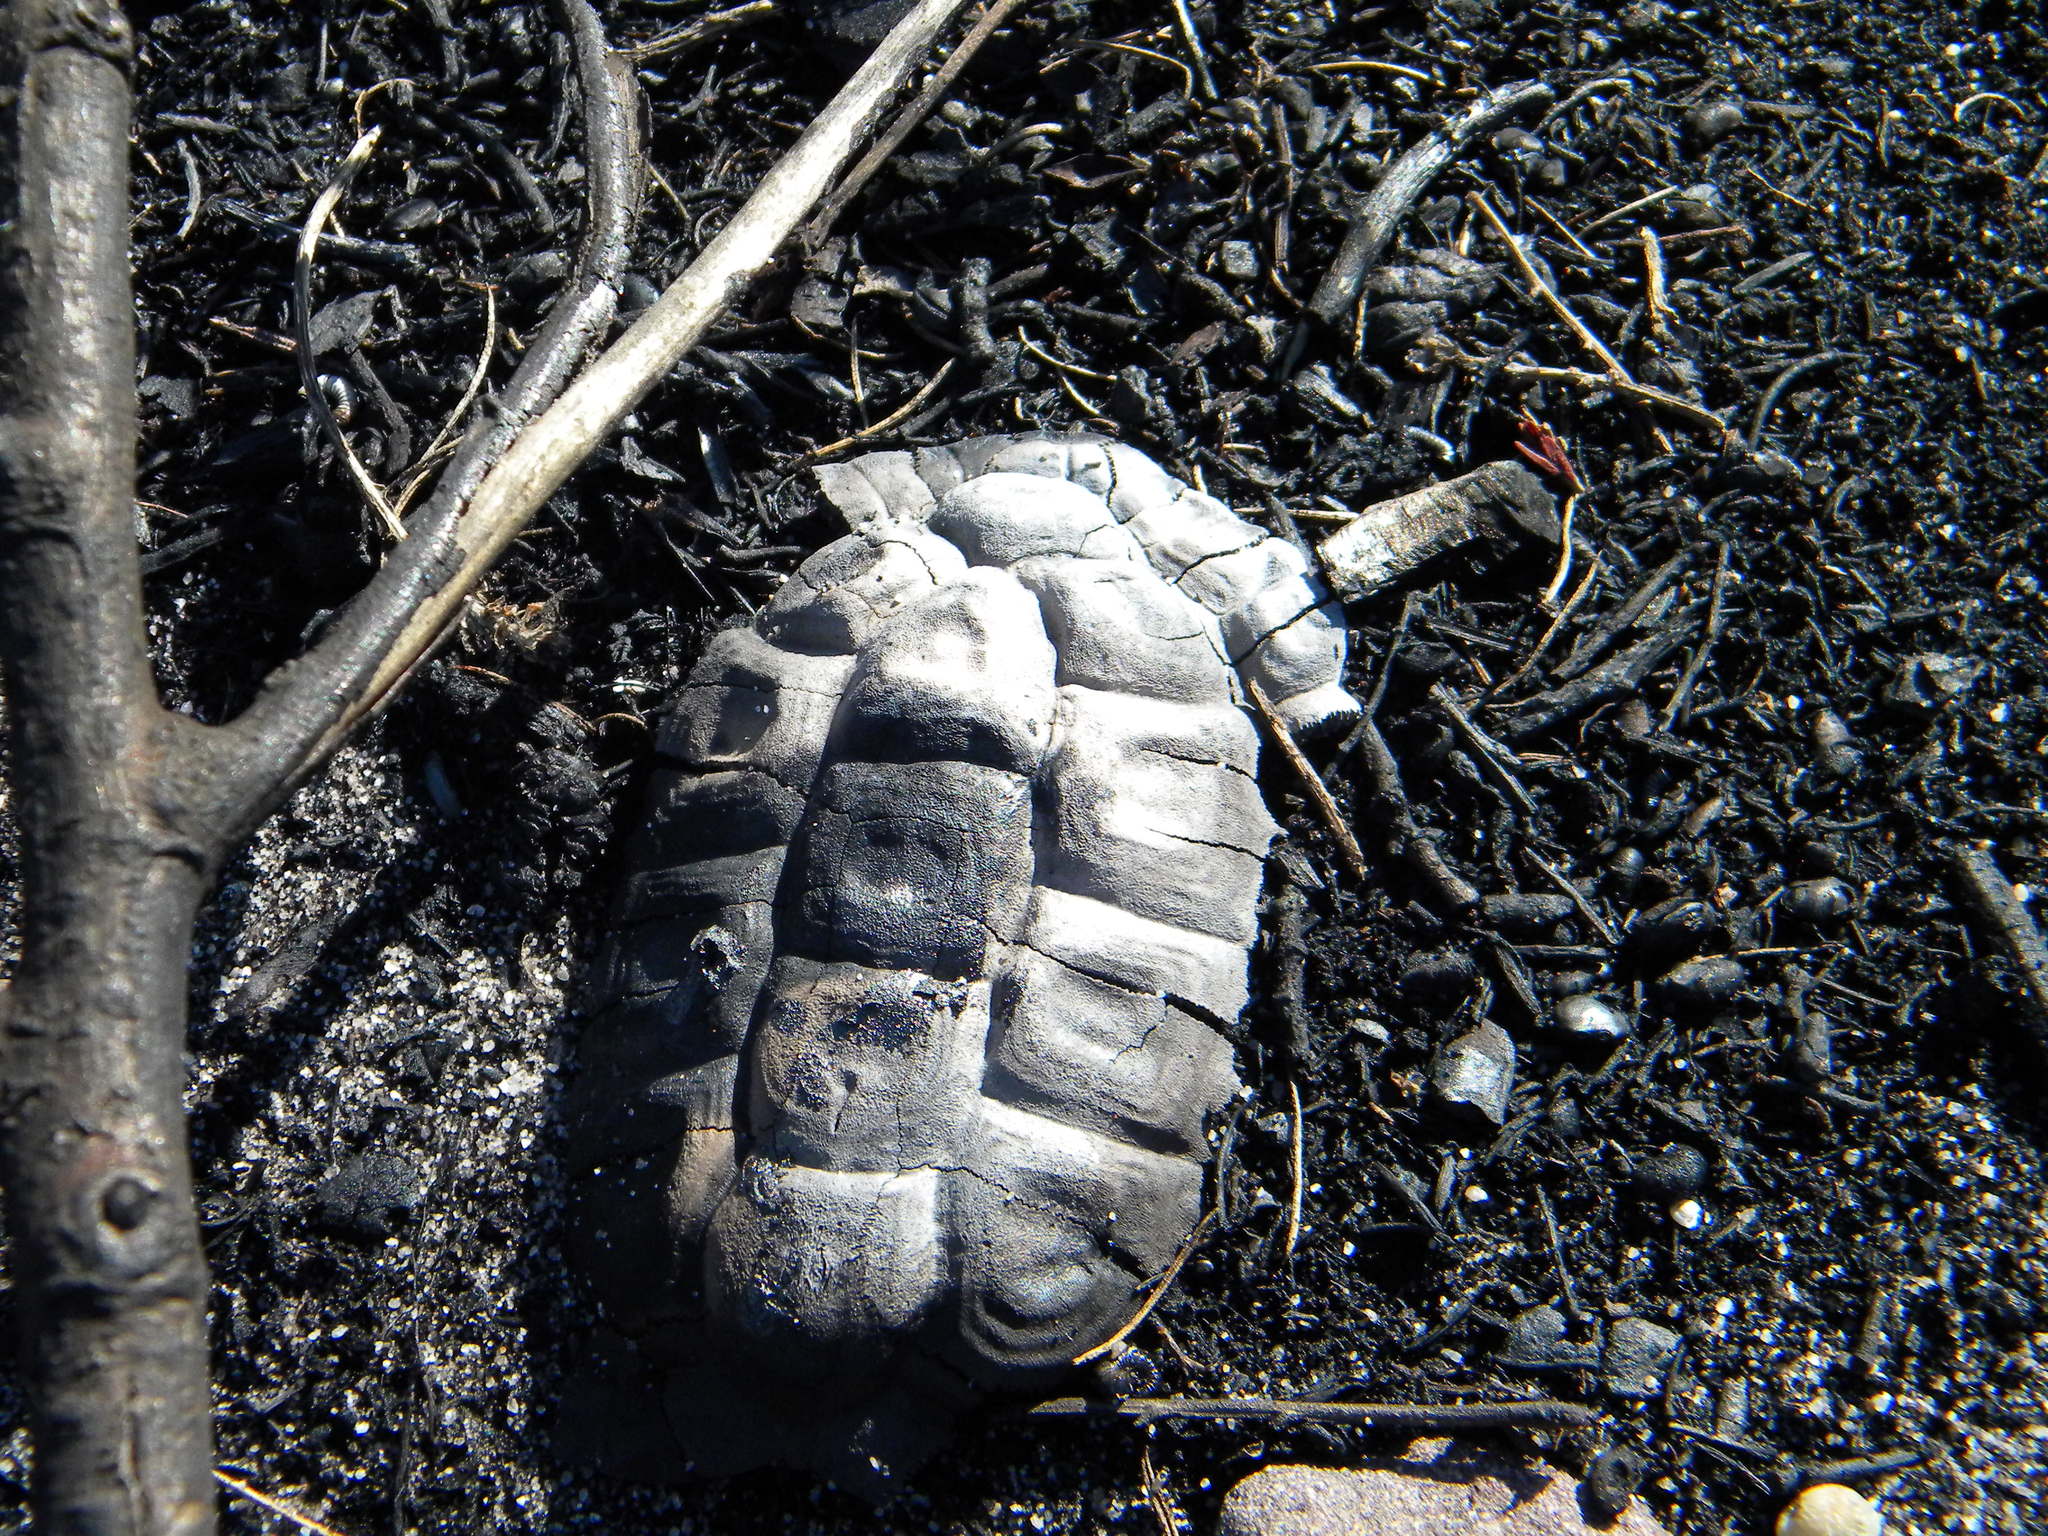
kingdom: Animalia
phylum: Chordata
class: Testudines
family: Pelomedusidae
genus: Pelomedusa
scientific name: Pelomedusa galeata
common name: South african helmeted terrapin
